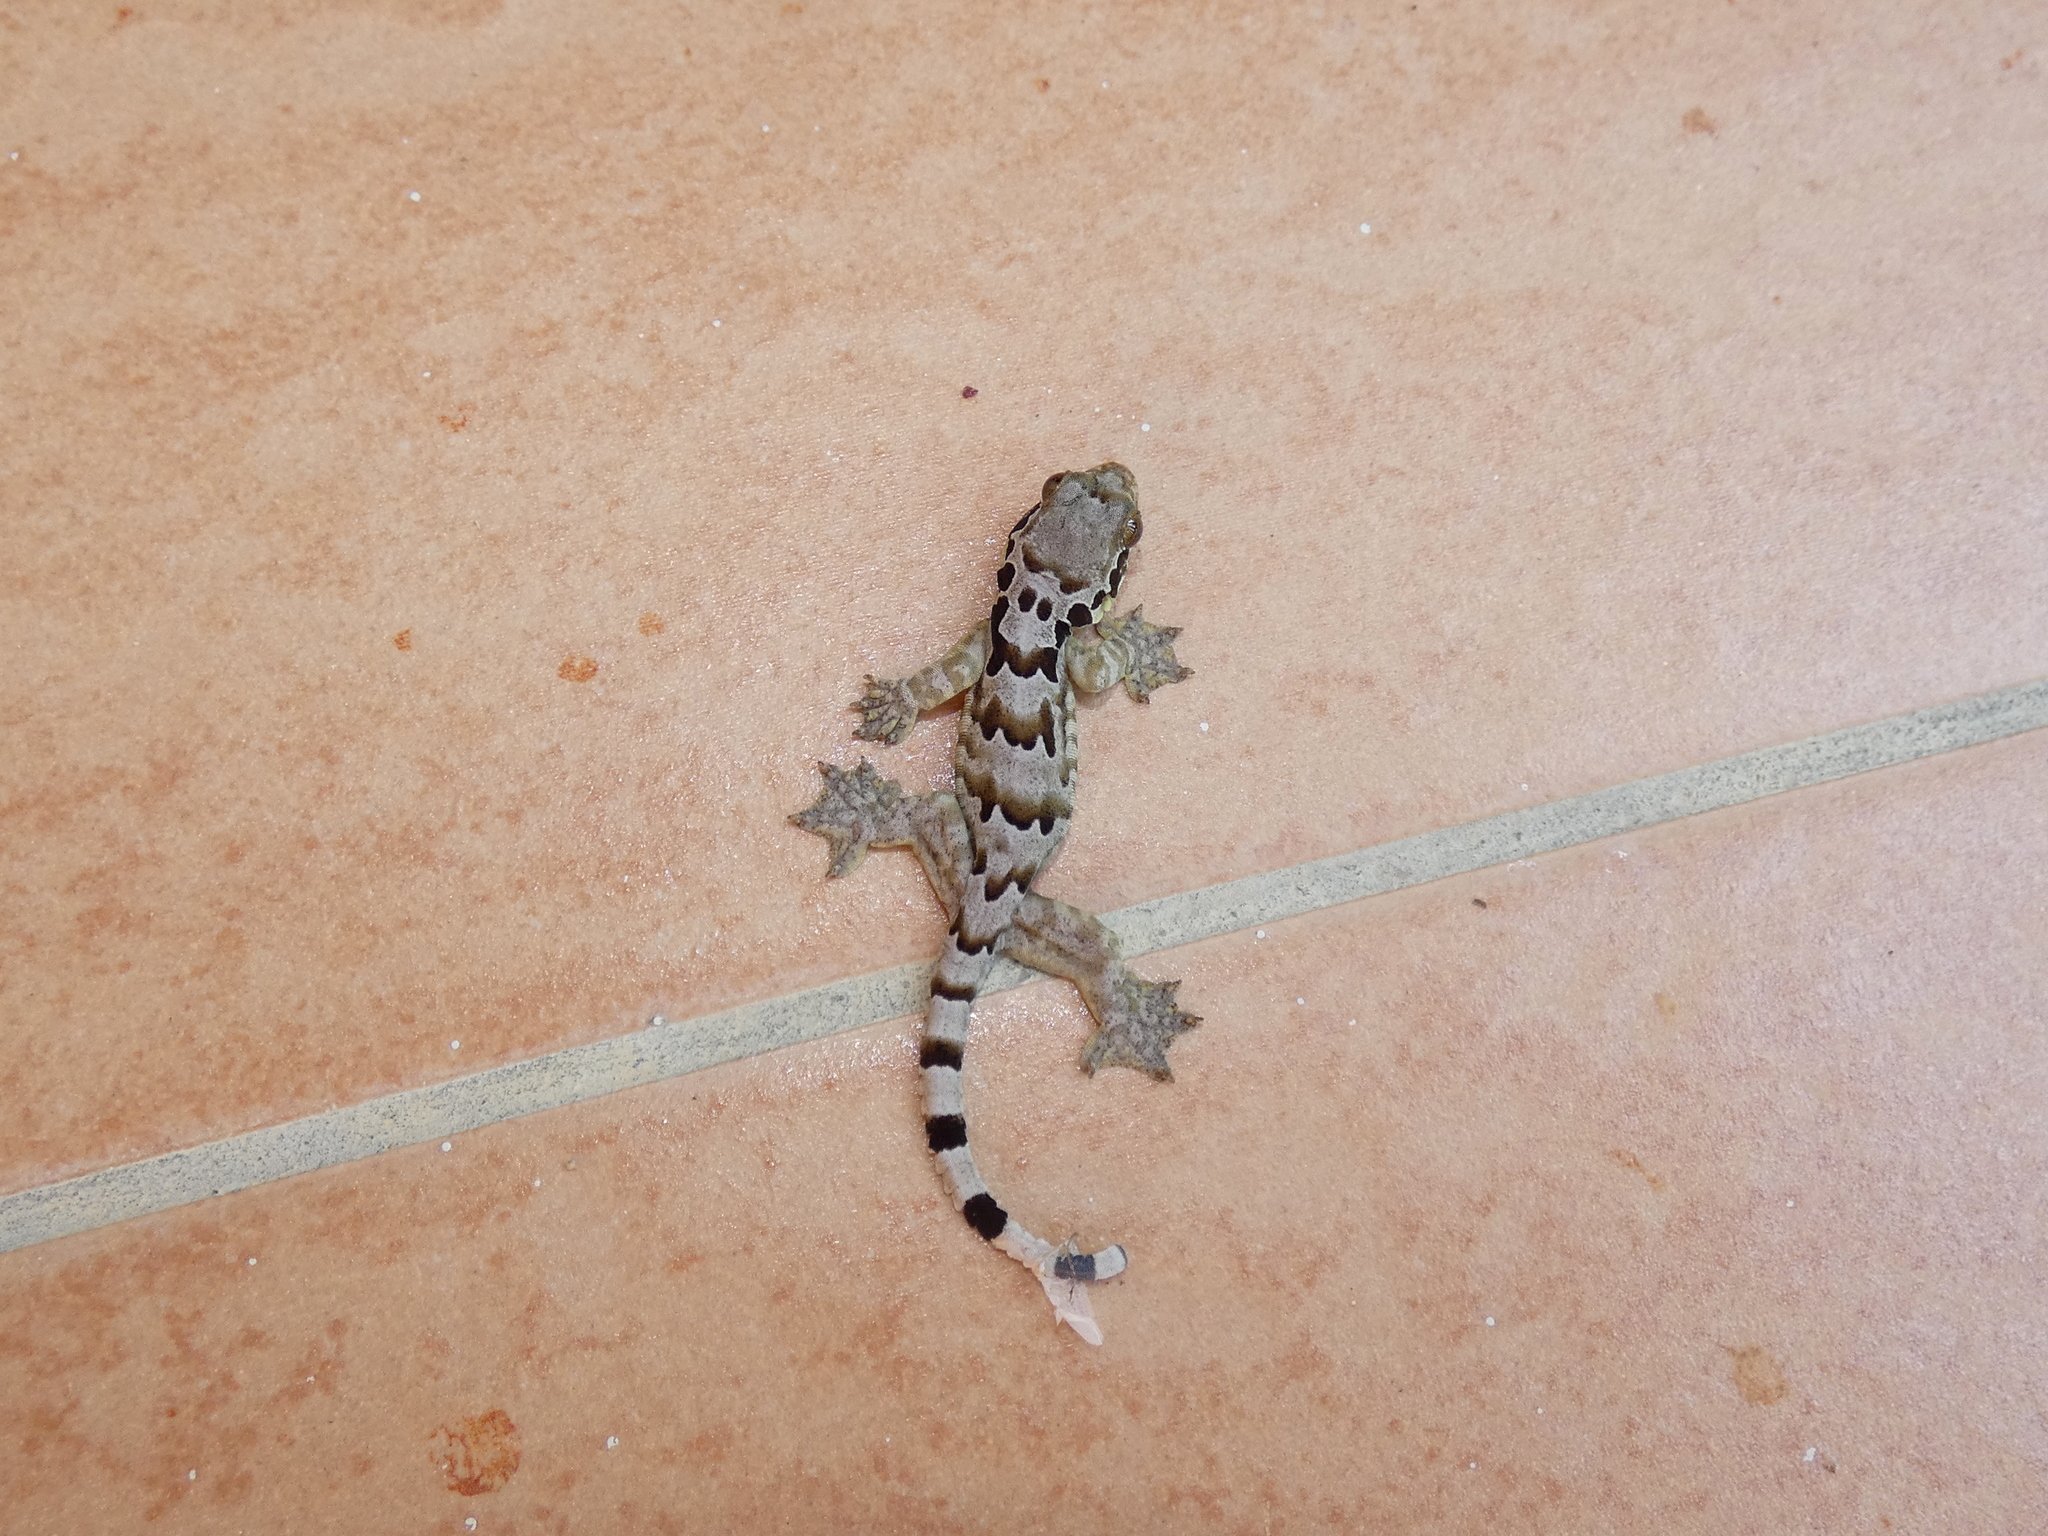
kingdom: Animalia
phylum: Chordata
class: Squamata
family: Gekkonidae
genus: Gekko
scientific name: Gekko horsfieldii
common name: Horsfield's flying gecko
